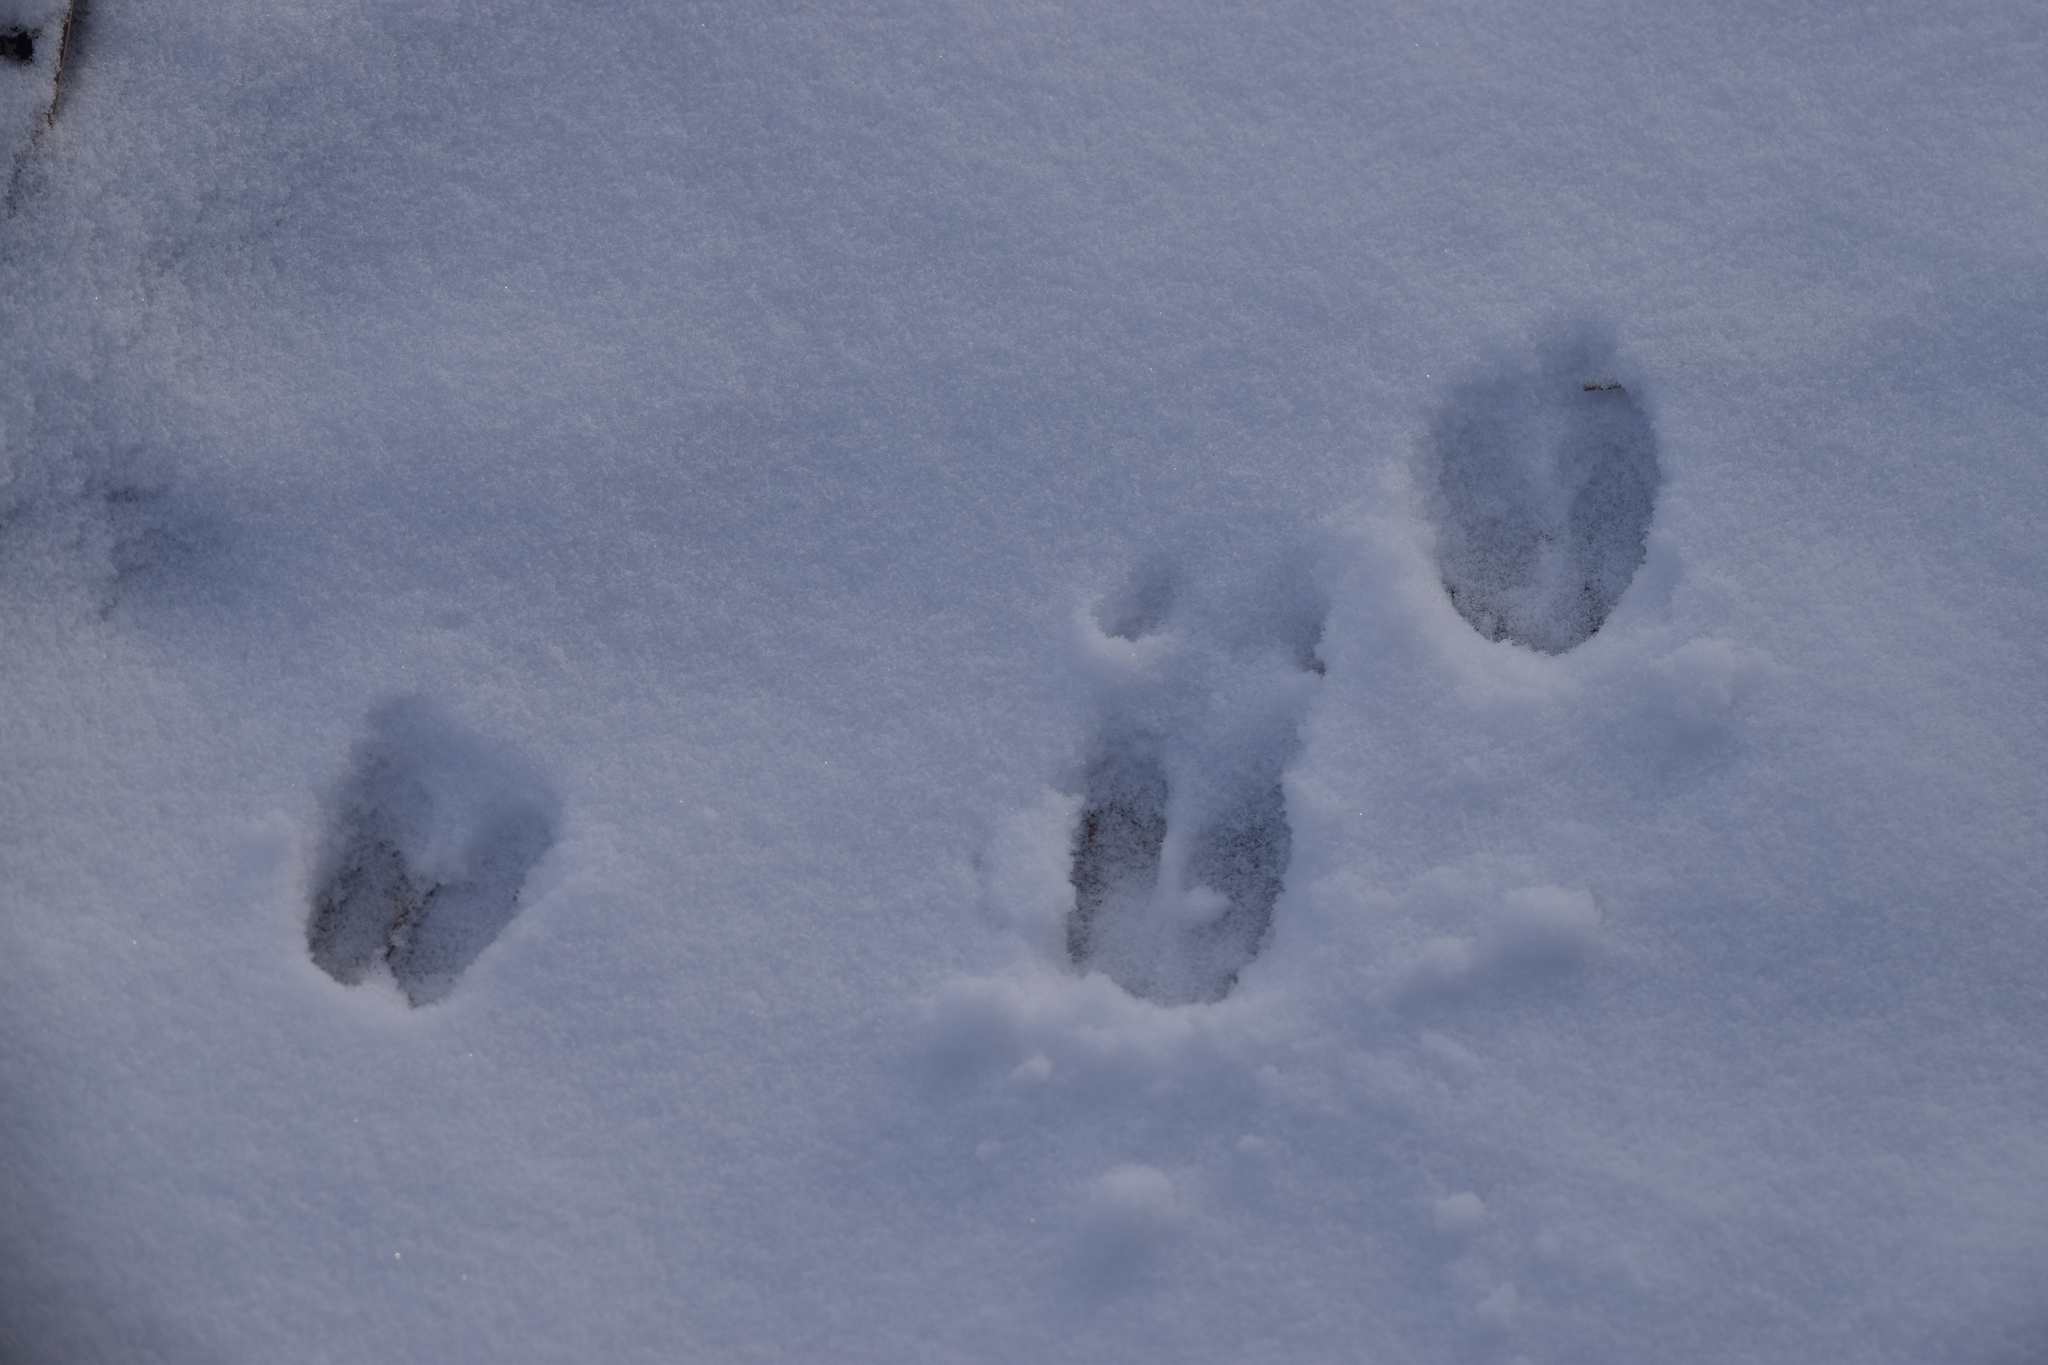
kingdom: Animalia
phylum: Chordata
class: Mammalia
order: Artiodactyla
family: Cervidae
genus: Capreolus
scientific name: Capreolus capreolus
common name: Western roe deer
